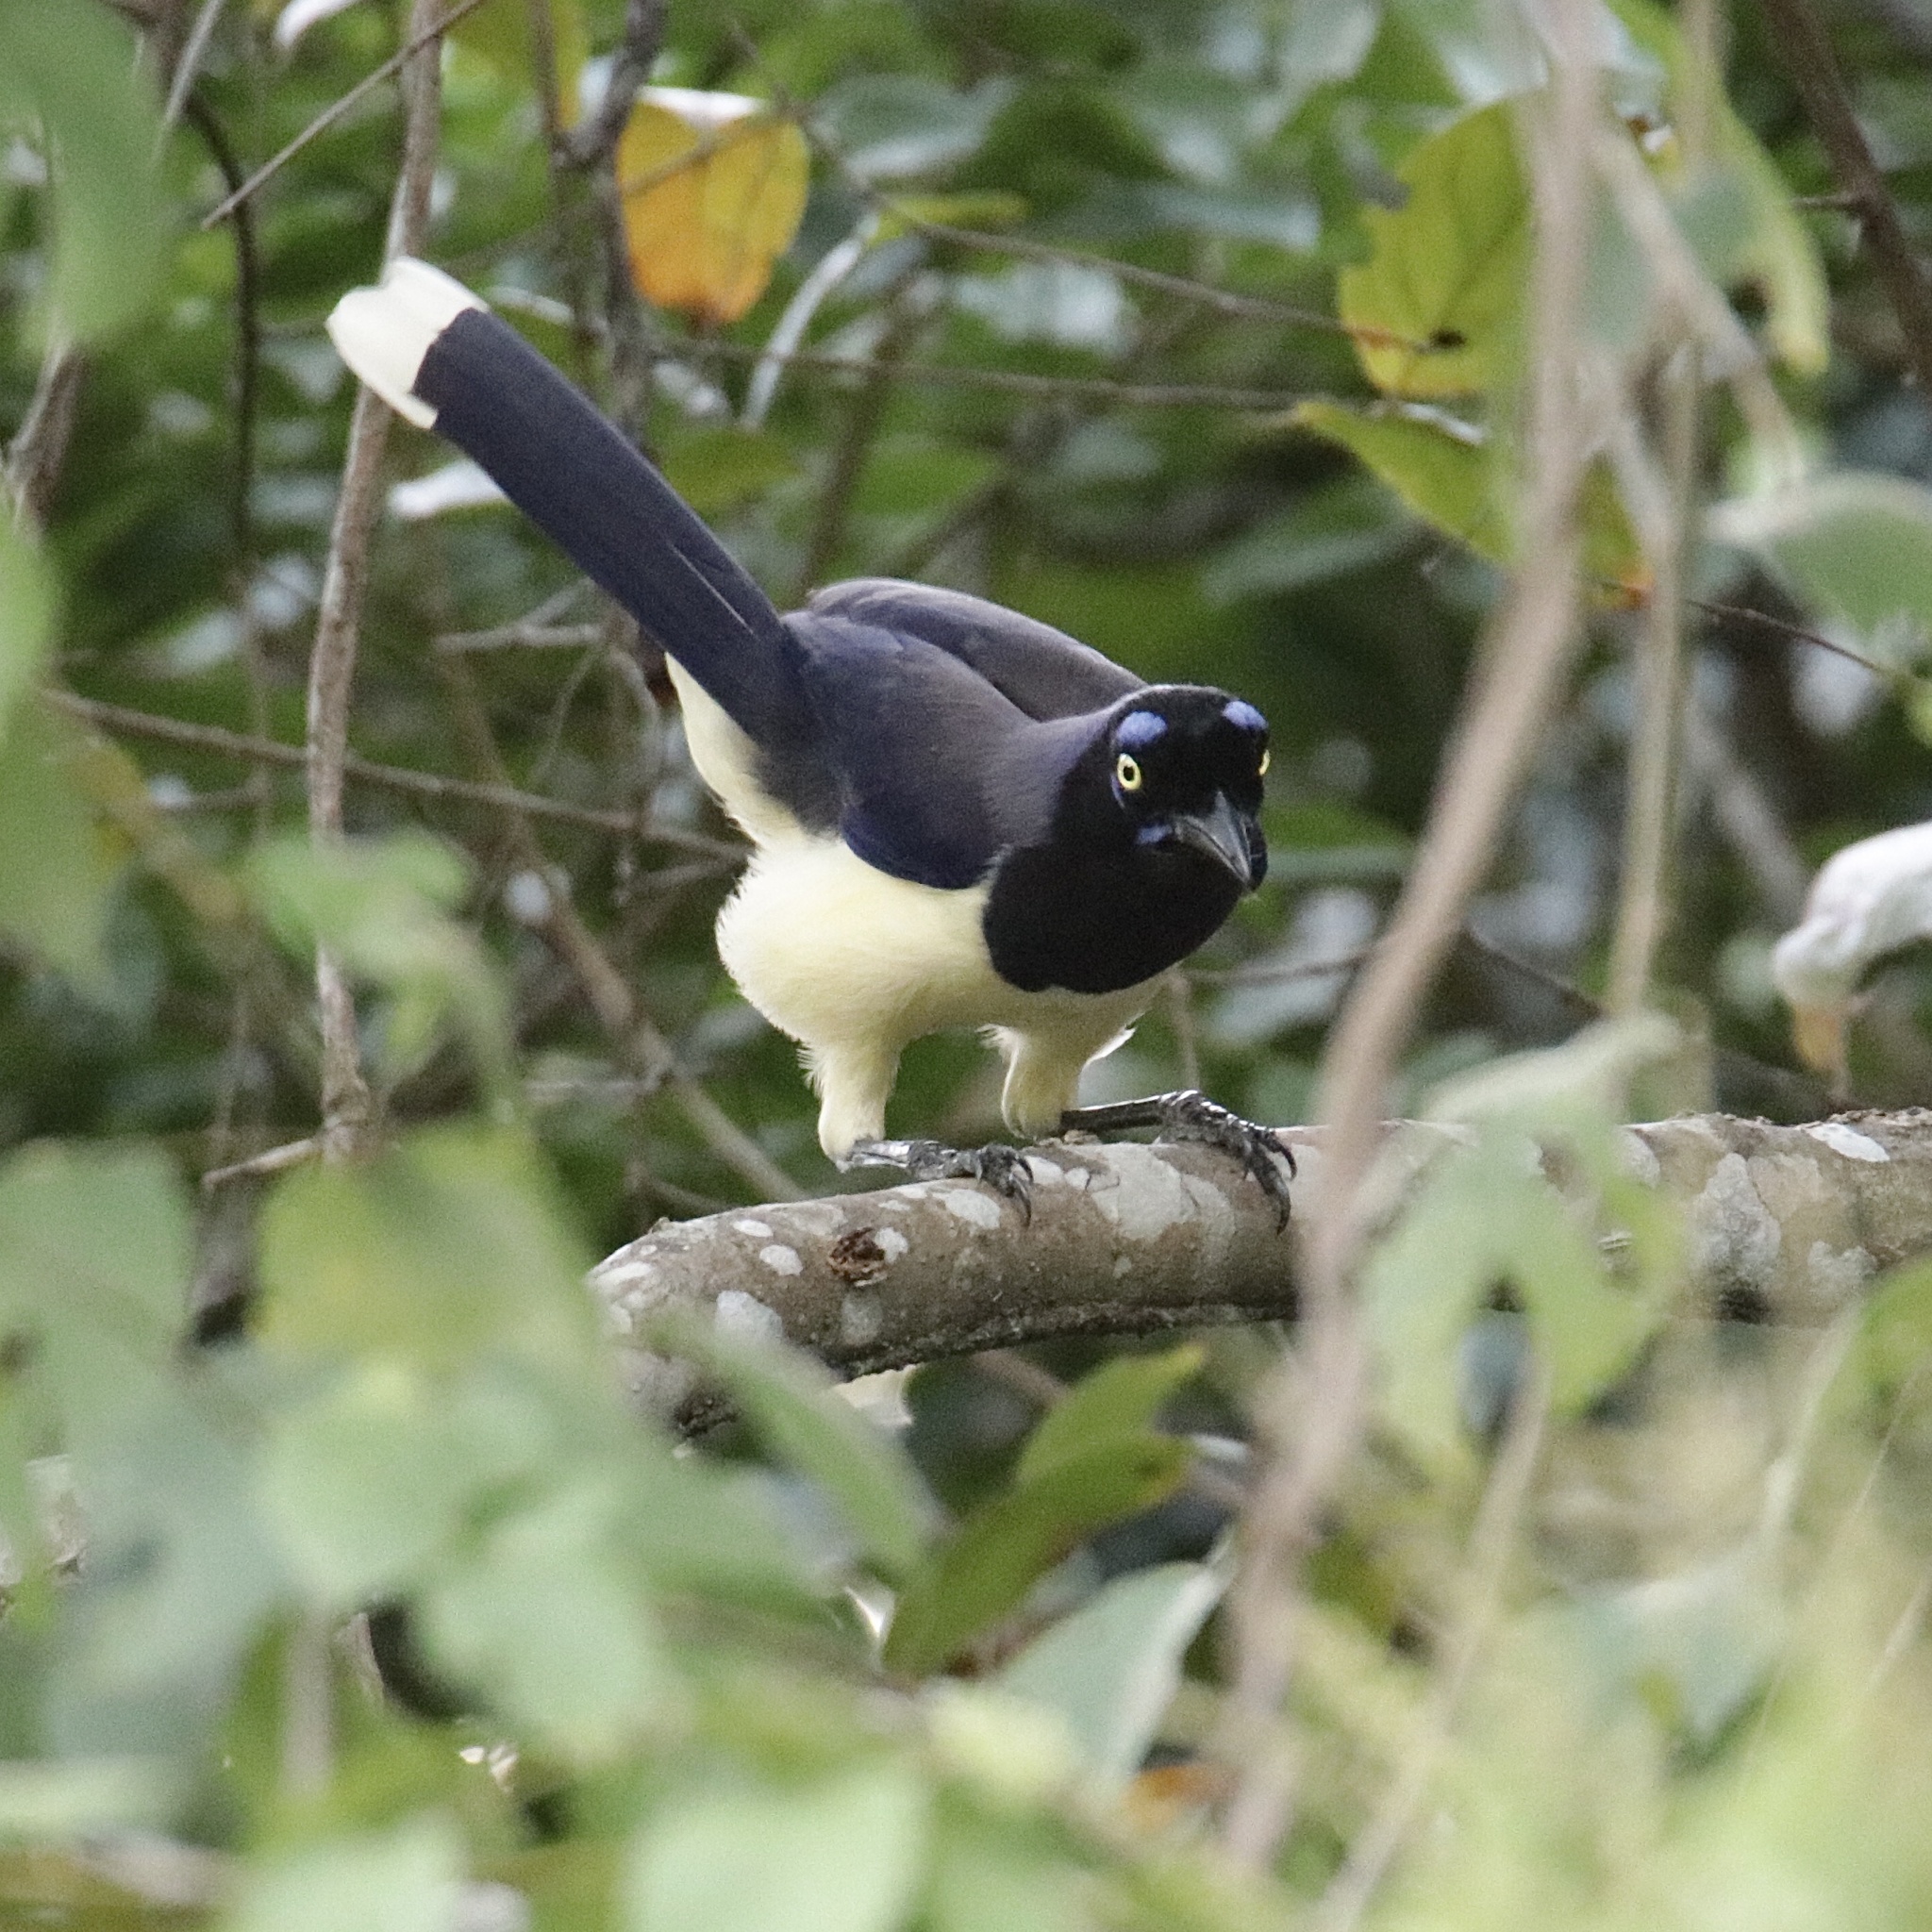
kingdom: Animalia
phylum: Chordata
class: Aves
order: Passeriformes
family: Corvidae
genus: Cyanocorax
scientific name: Cyanocorax affinis
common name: Black-chested jay
